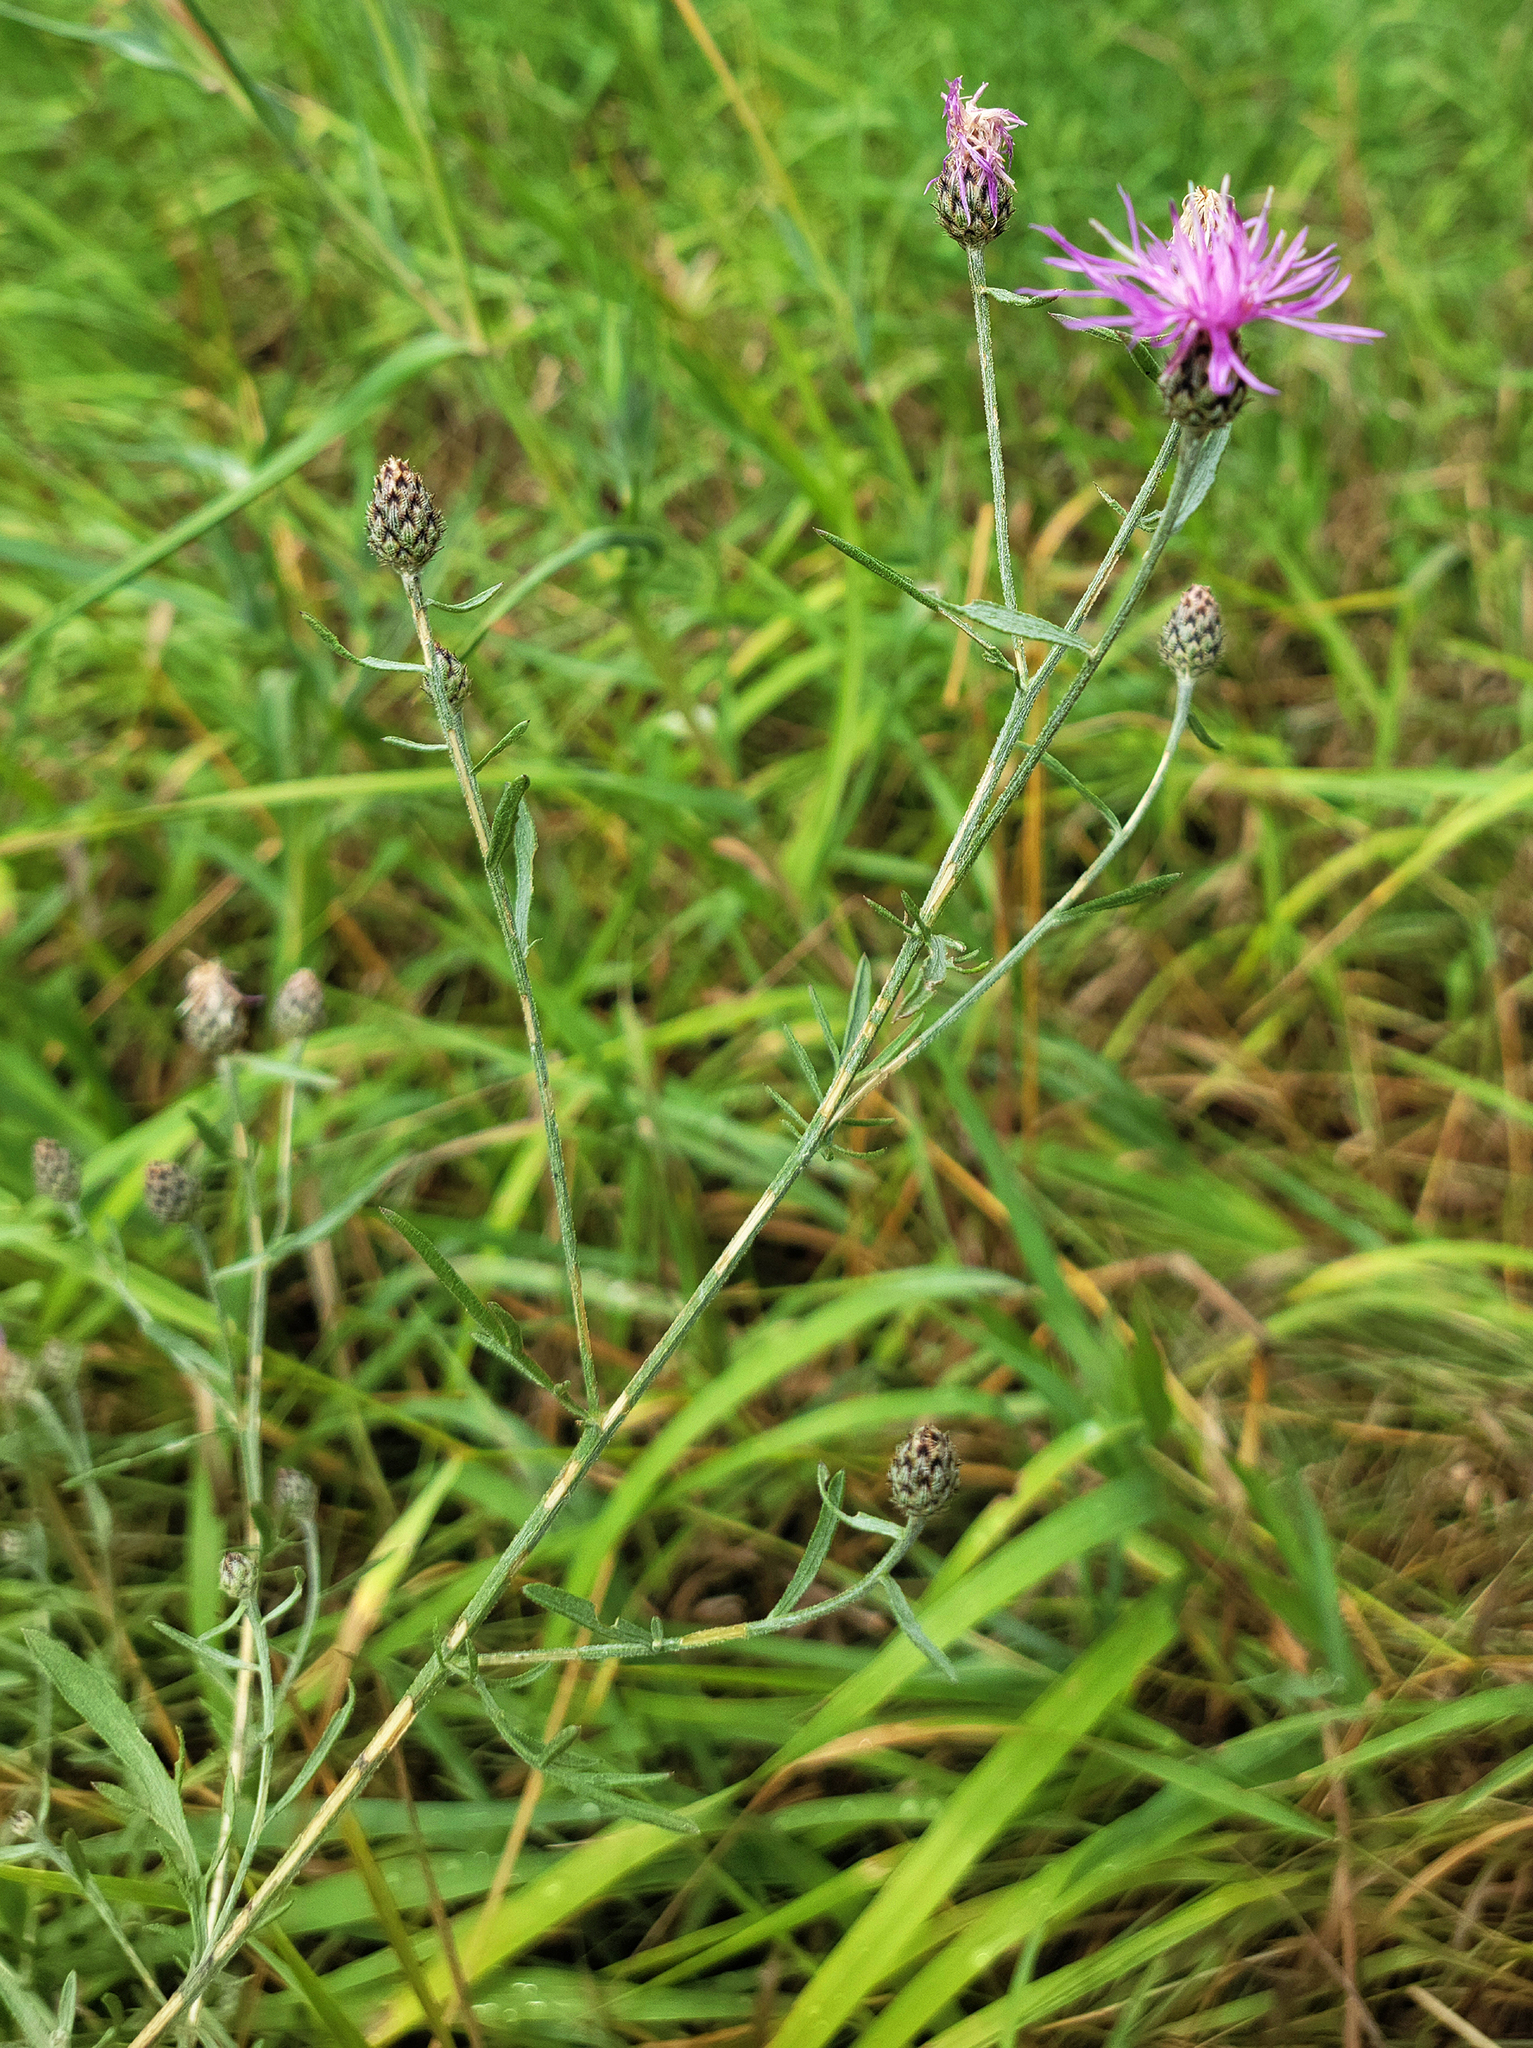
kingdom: Plantae
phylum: Tracheophyta
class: Magnoliopsida
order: Asterales
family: Asteraceae
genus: Centaurea
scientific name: Centaurea stoebe
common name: Spotted knapweed
